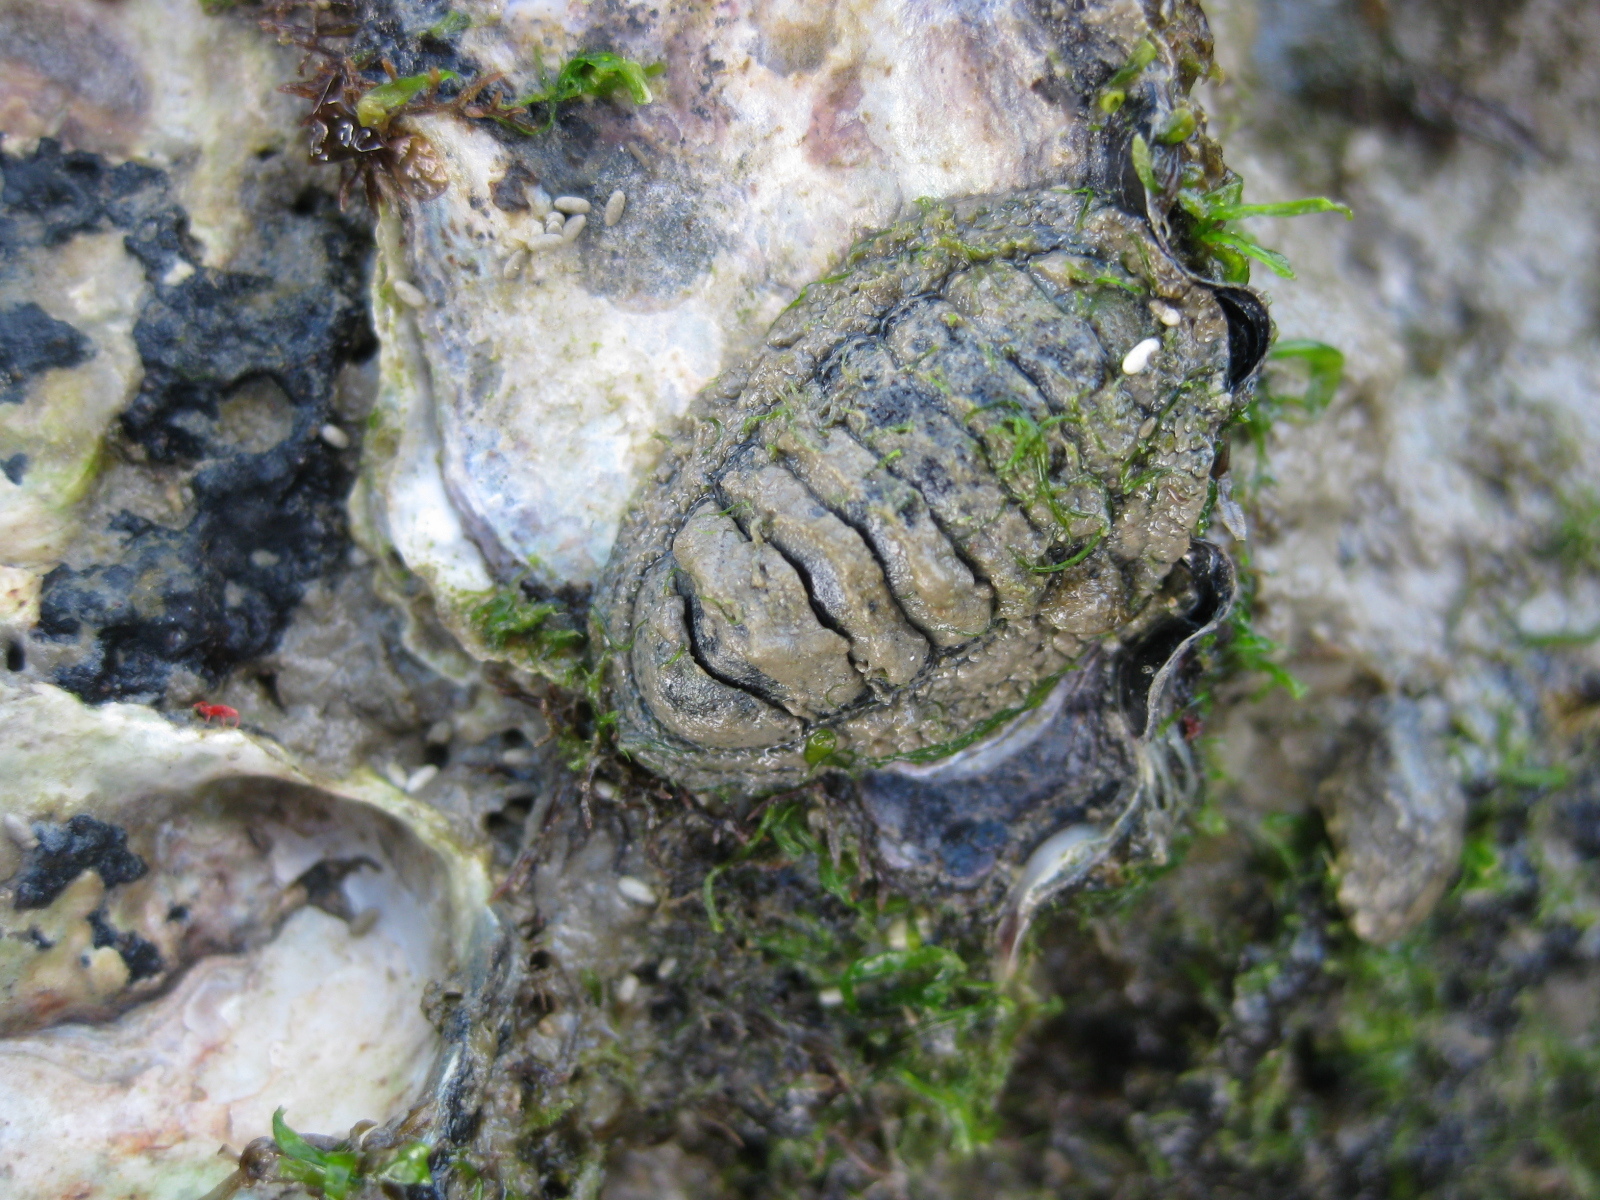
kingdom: Animalia
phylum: Mollusca
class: Polyplacophora
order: Chitonida
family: Chitonidae
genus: Sypharochiton
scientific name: Sypharochiton pelliserpentis
